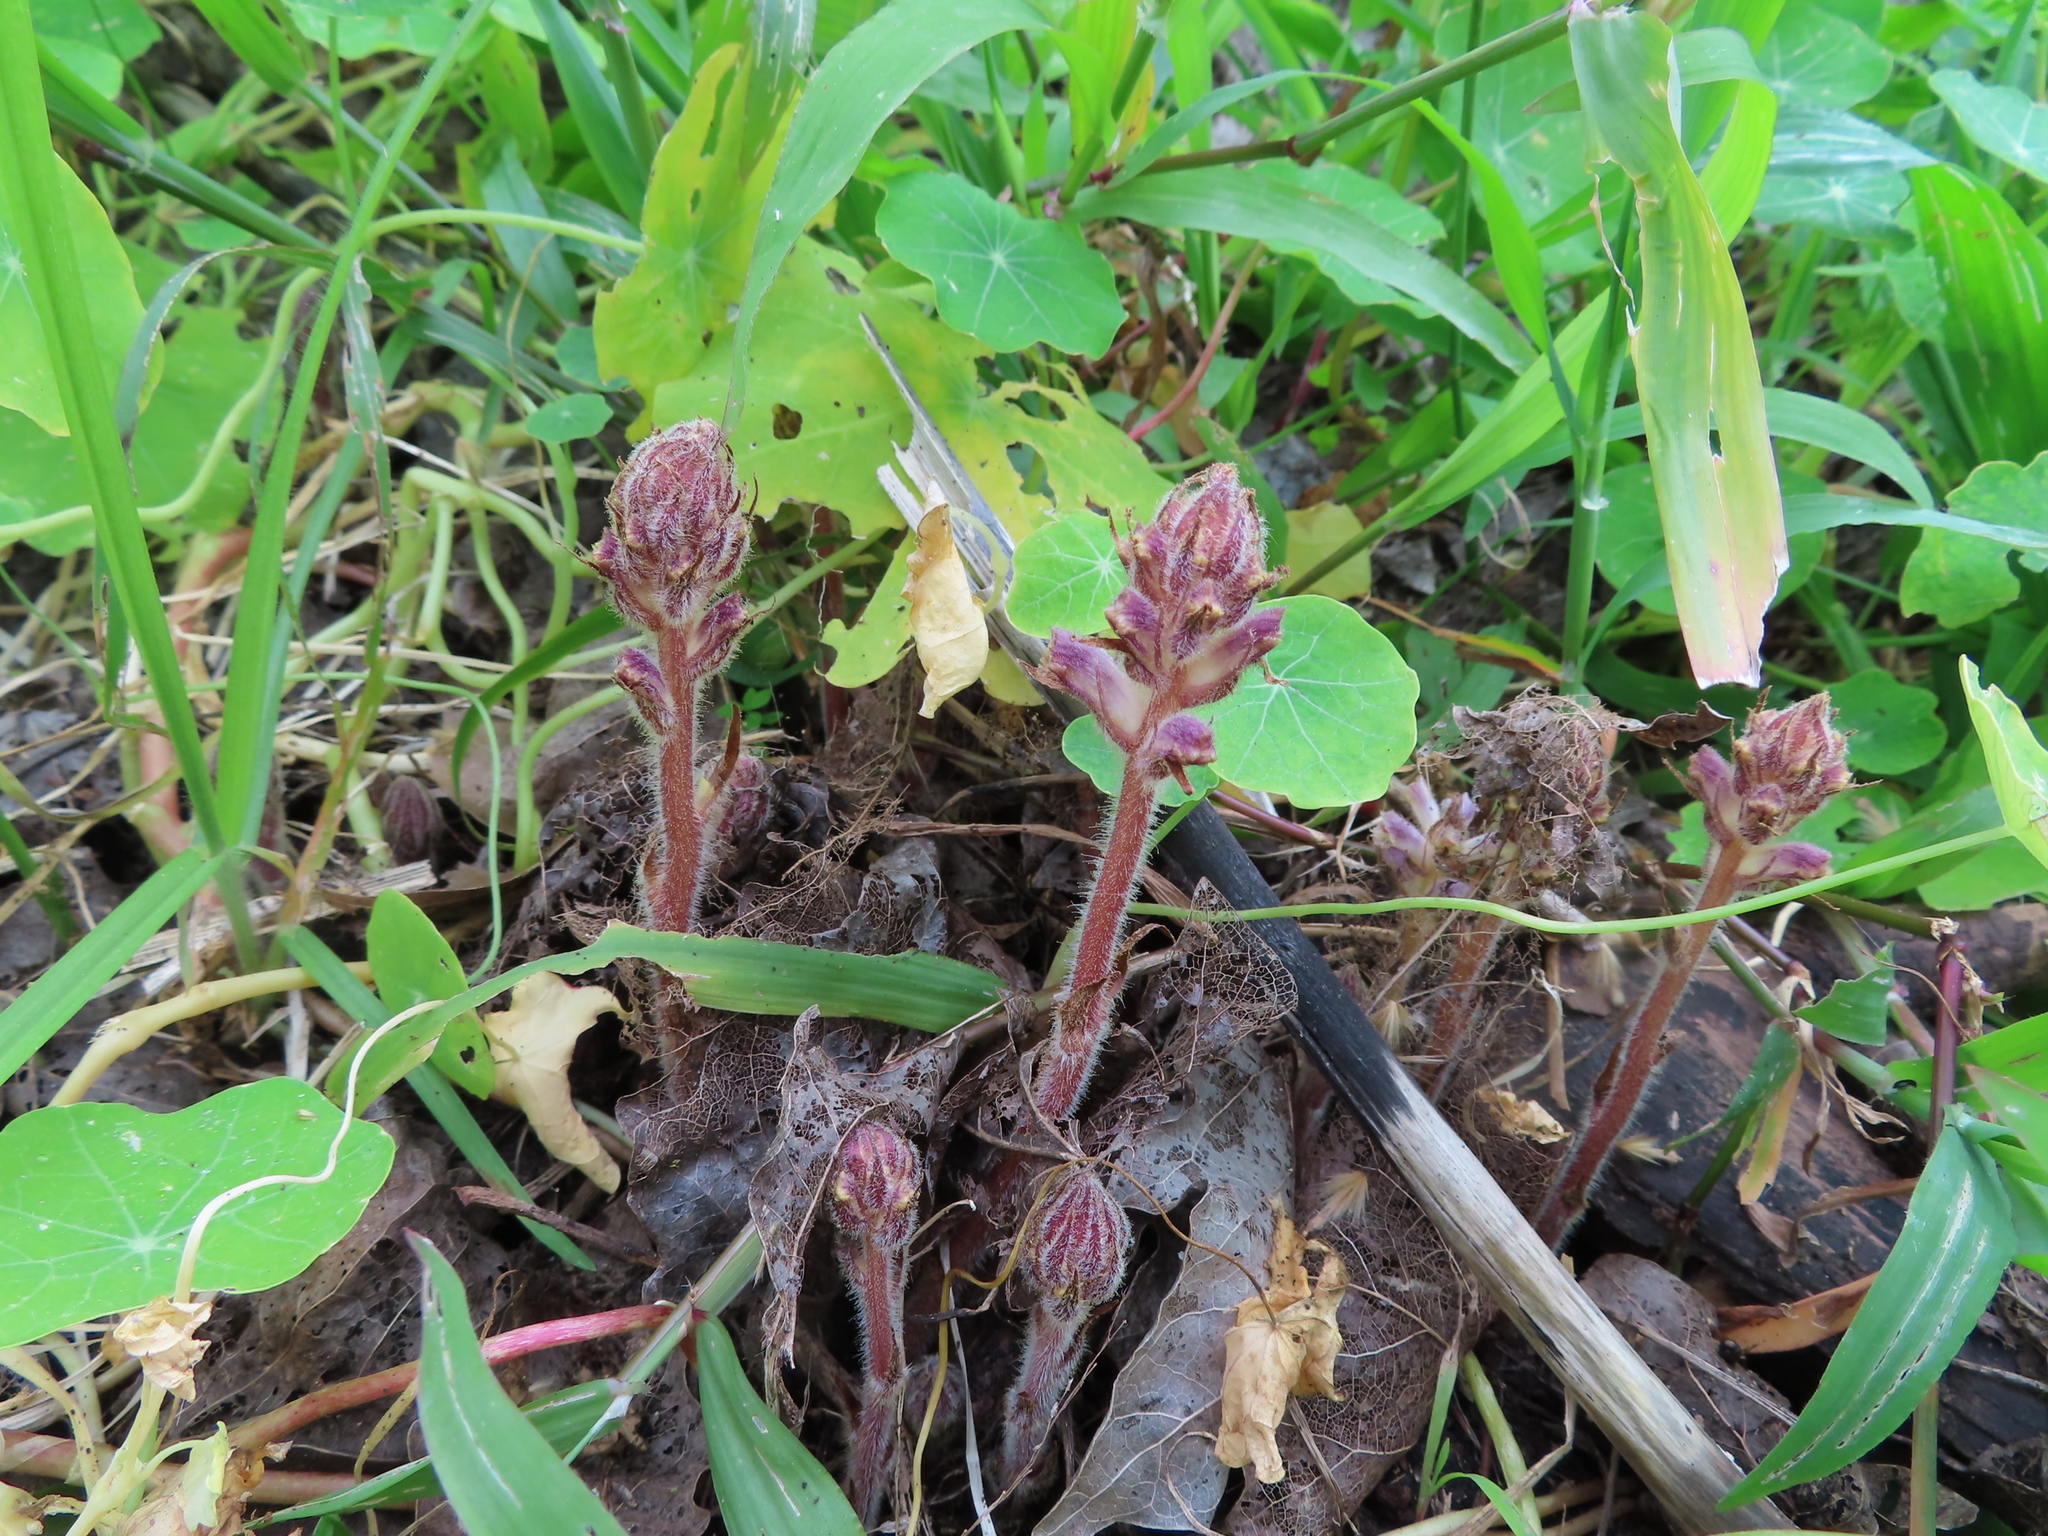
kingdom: Plantae
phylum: Tracheophyta
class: Magnoliopsida
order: Lamiales
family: Orobanchaceae
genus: Orobanche
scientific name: Orobanche minor
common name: Common broomrape
